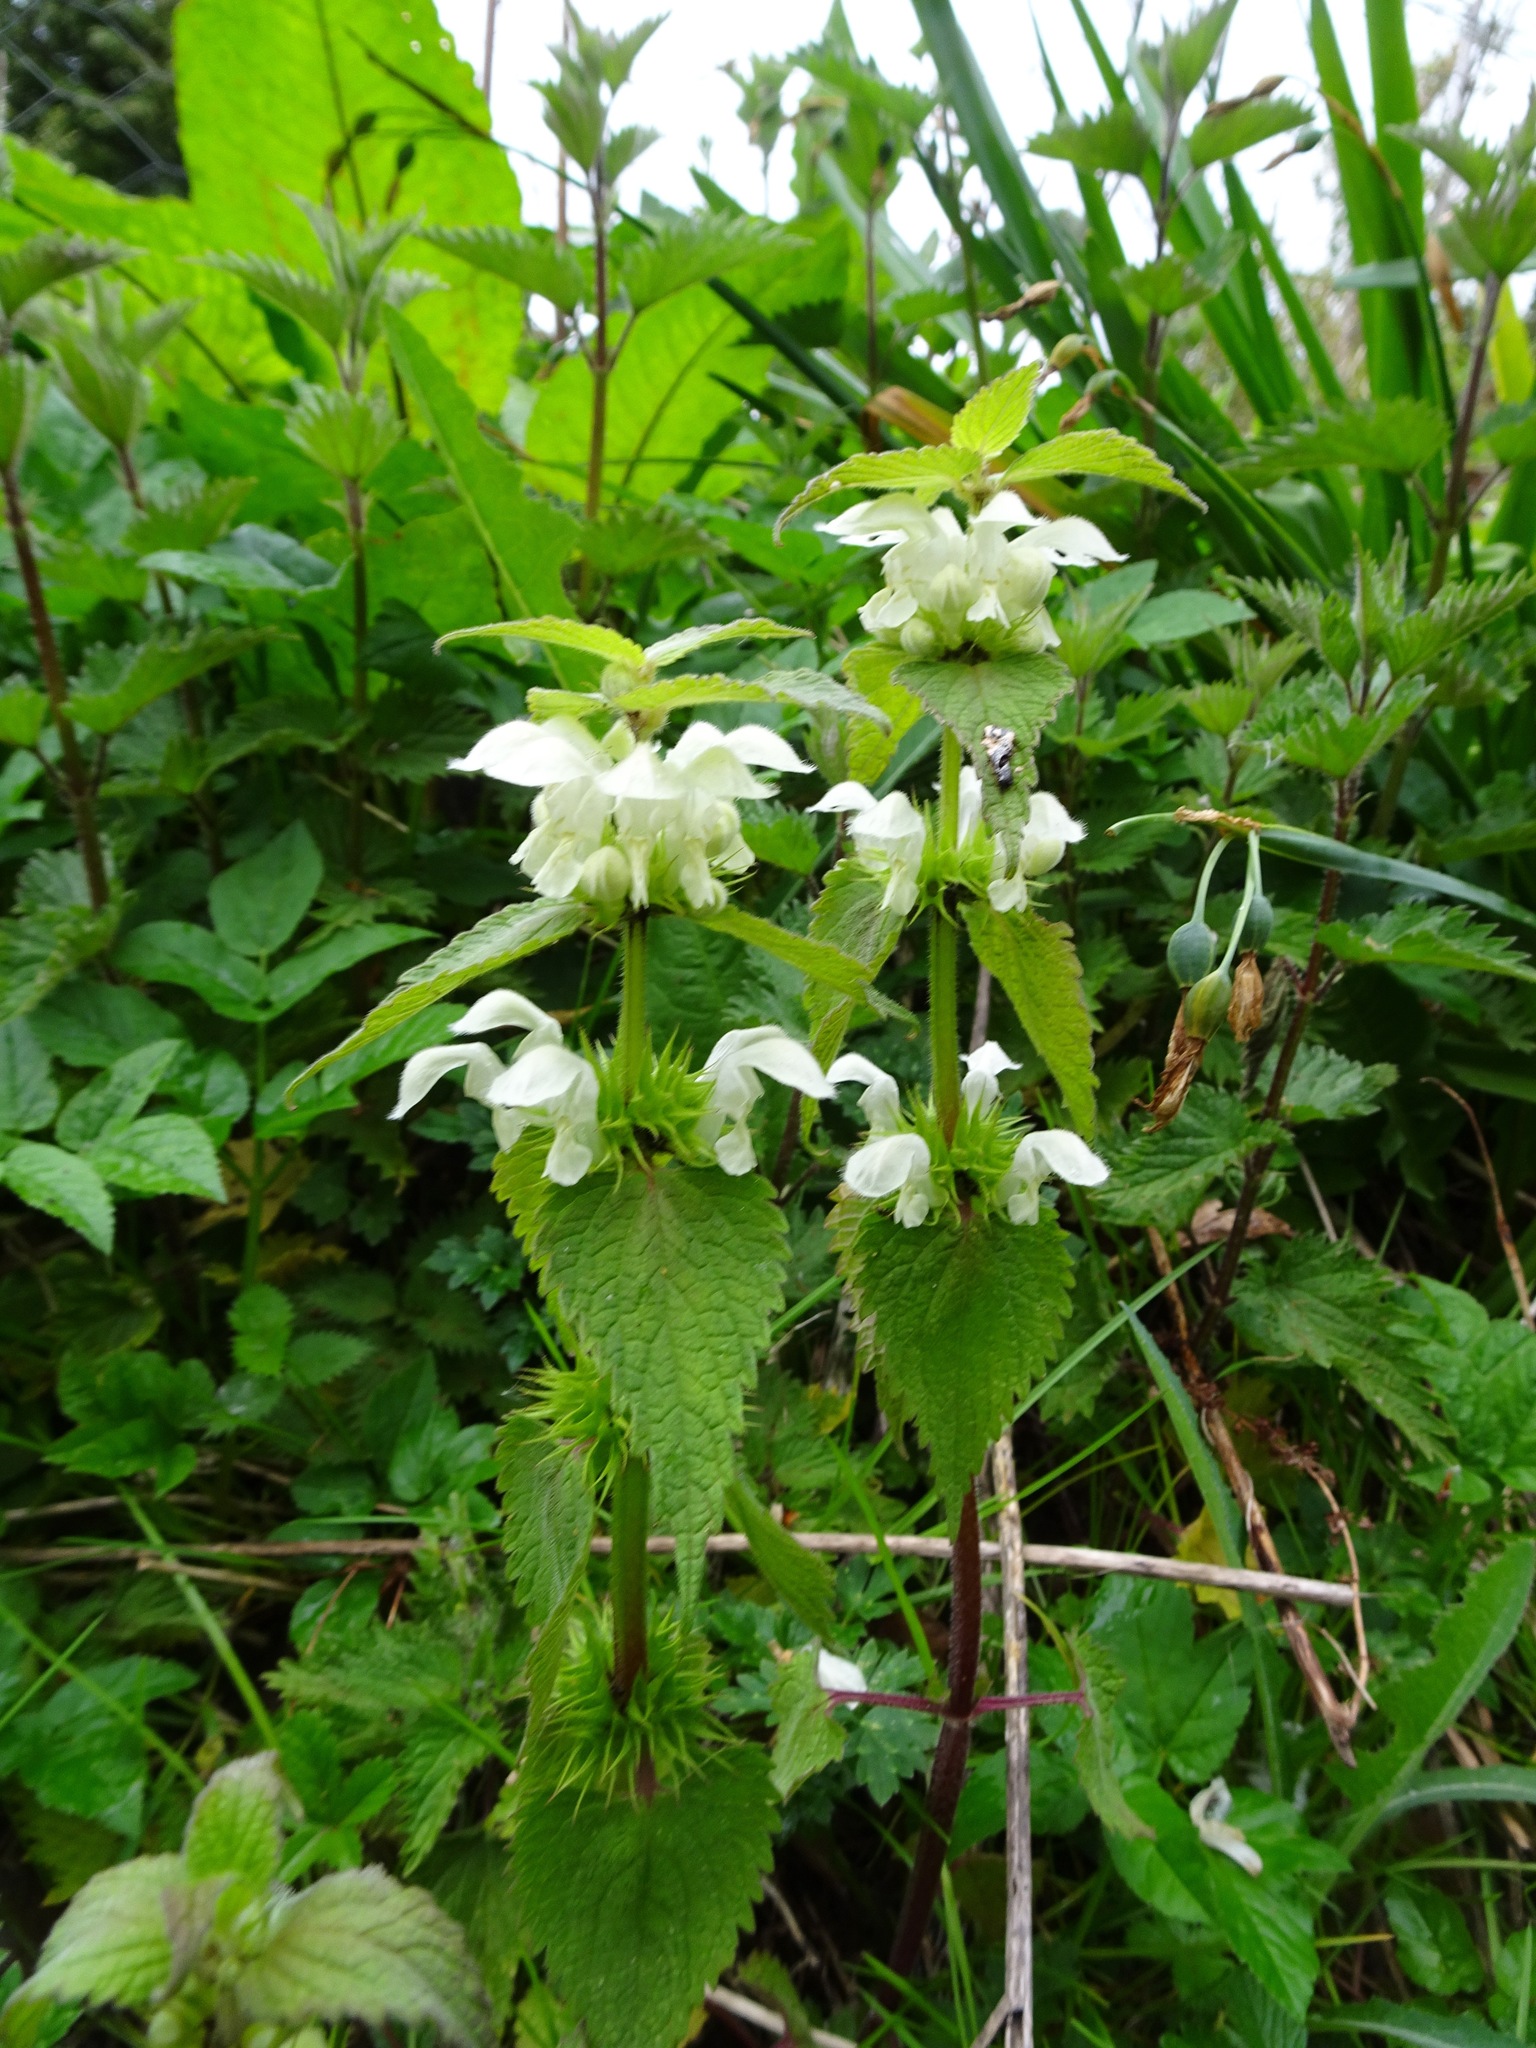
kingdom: Plantae
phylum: Tracheophyta
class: Magnoliopsida
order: Lamiales
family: Lamiaceae
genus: Lamium
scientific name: Lamium album
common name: White dead-nettle
